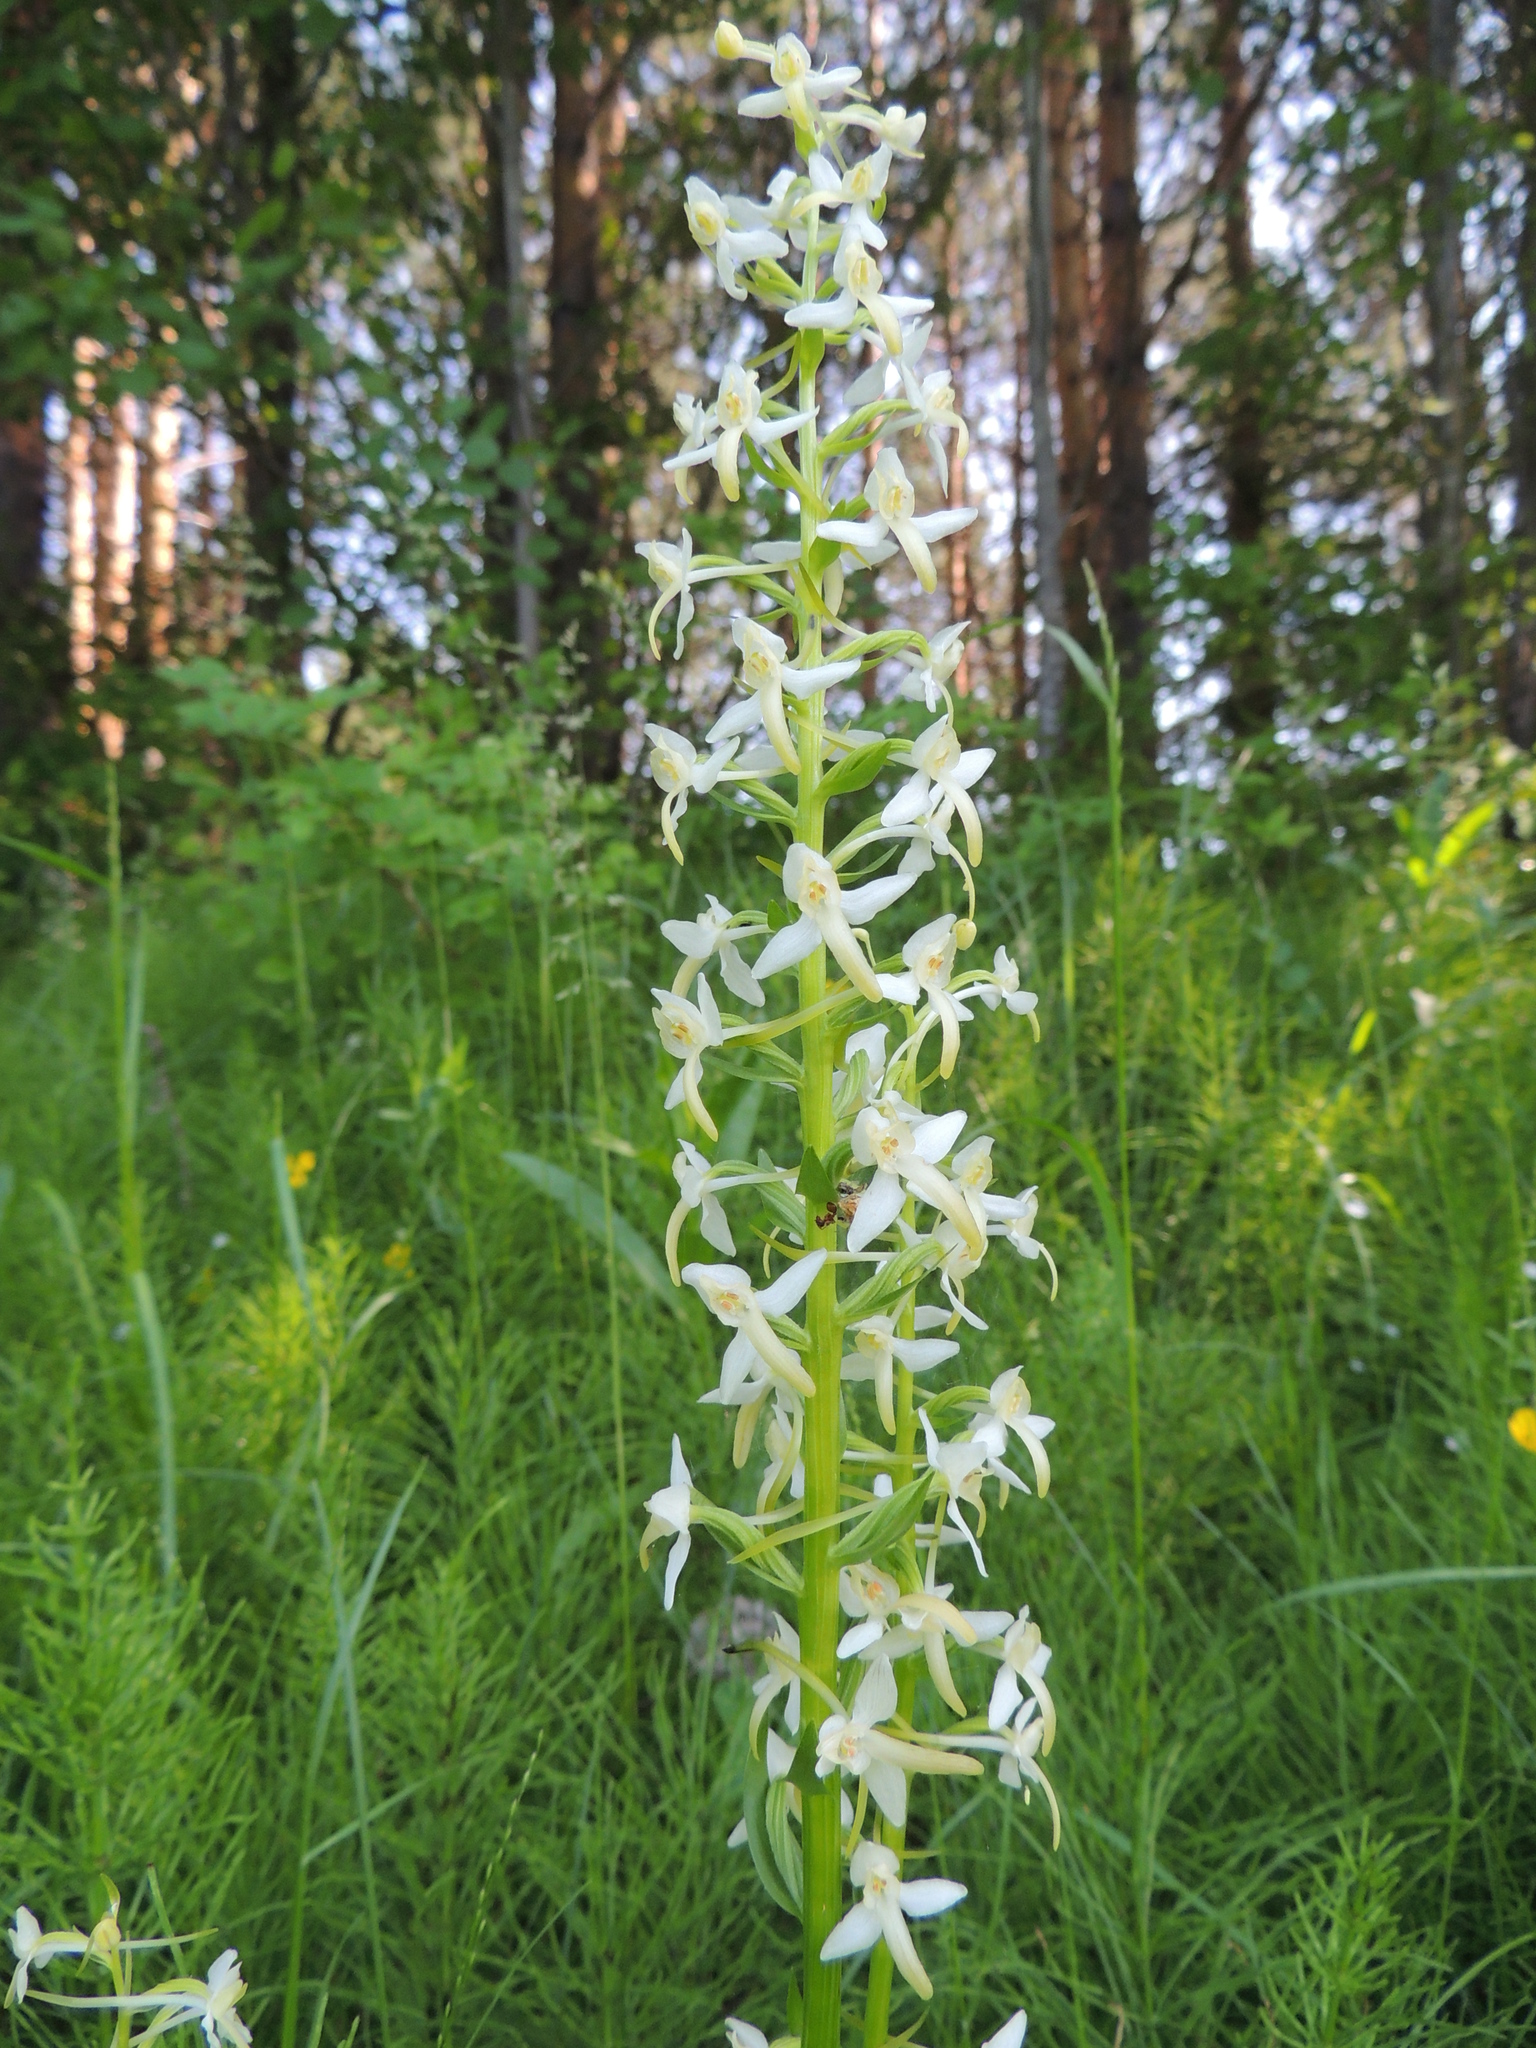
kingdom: Plantae
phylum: Tracheophyta
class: Liliopsida
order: Asparagales
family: Orchidaceae
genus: Platanthera
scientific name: Platanthera bifolia
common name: Lesser butterfly-orchid
